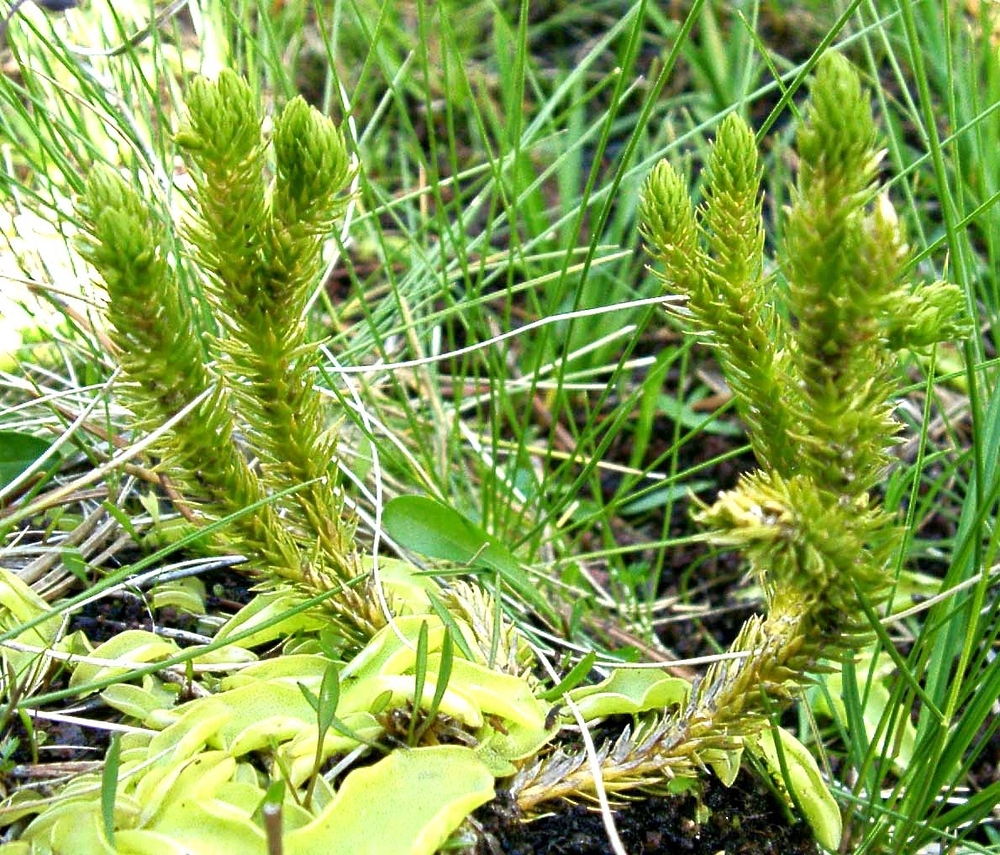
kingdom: Plantae
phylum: Tracheophyta
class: Lycopodiopsida
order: Lycopodiales
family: Lycopodiaceae
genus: Huperzia
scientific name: Huperzia selago
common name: Northern firmoss
